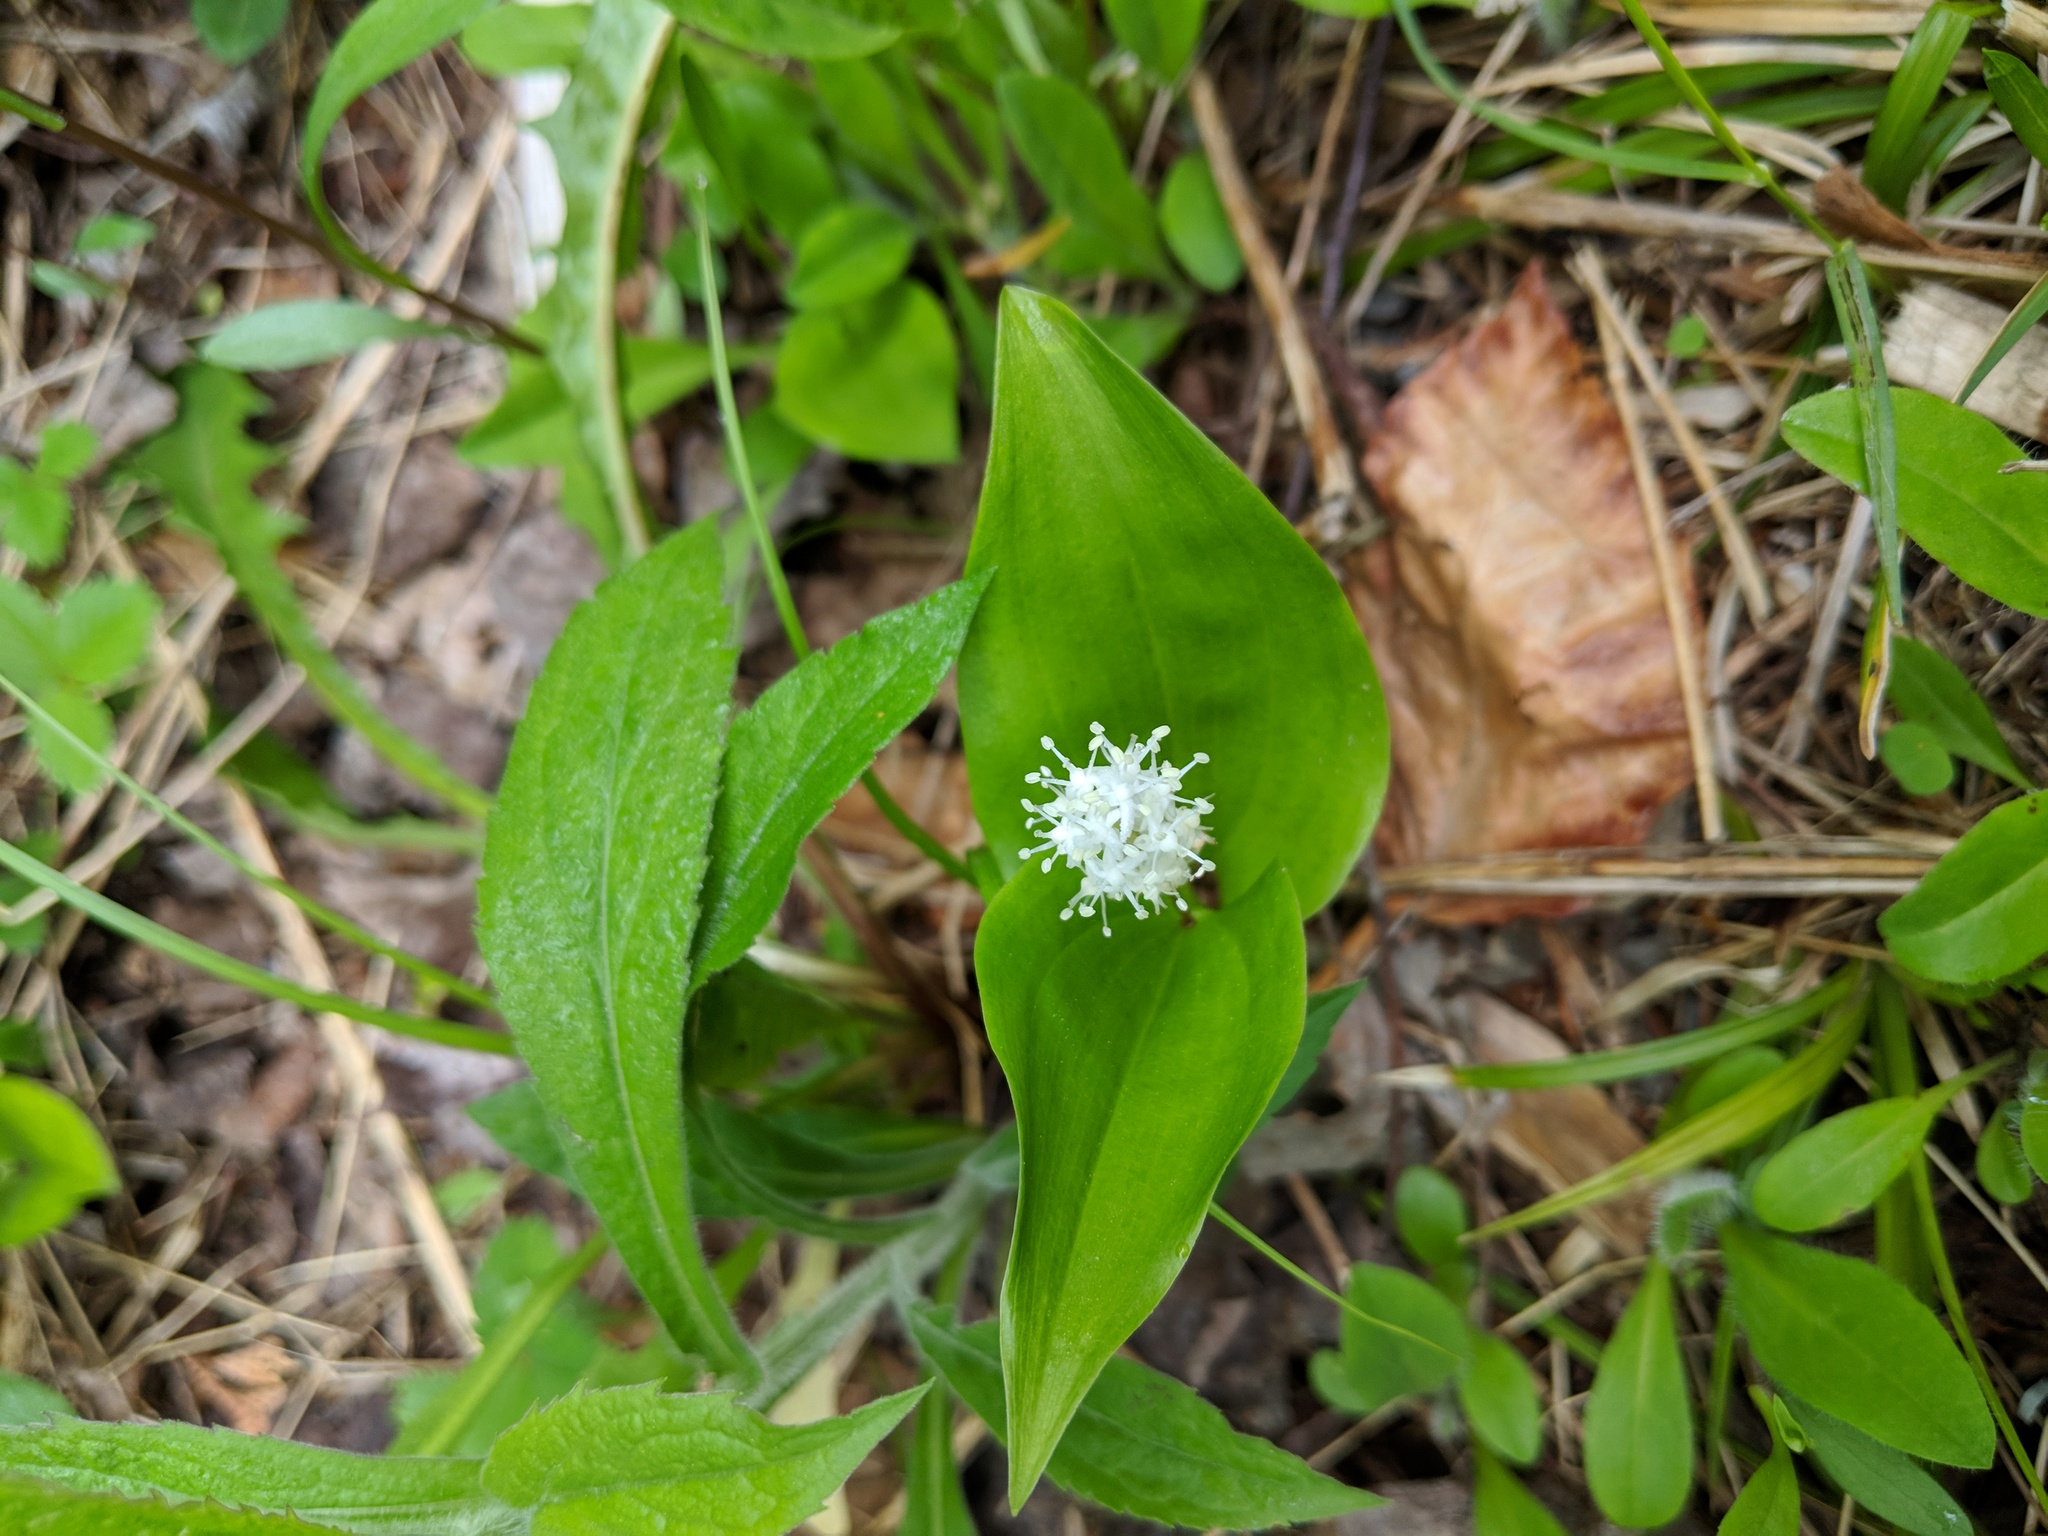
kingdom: Plantae
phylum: Tracheophyta
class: Liliopsida
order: Asparagales
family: Asparagaceae
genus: Maianthemum
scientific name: Maianthemum canadense
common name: False lily-of-the-valley
